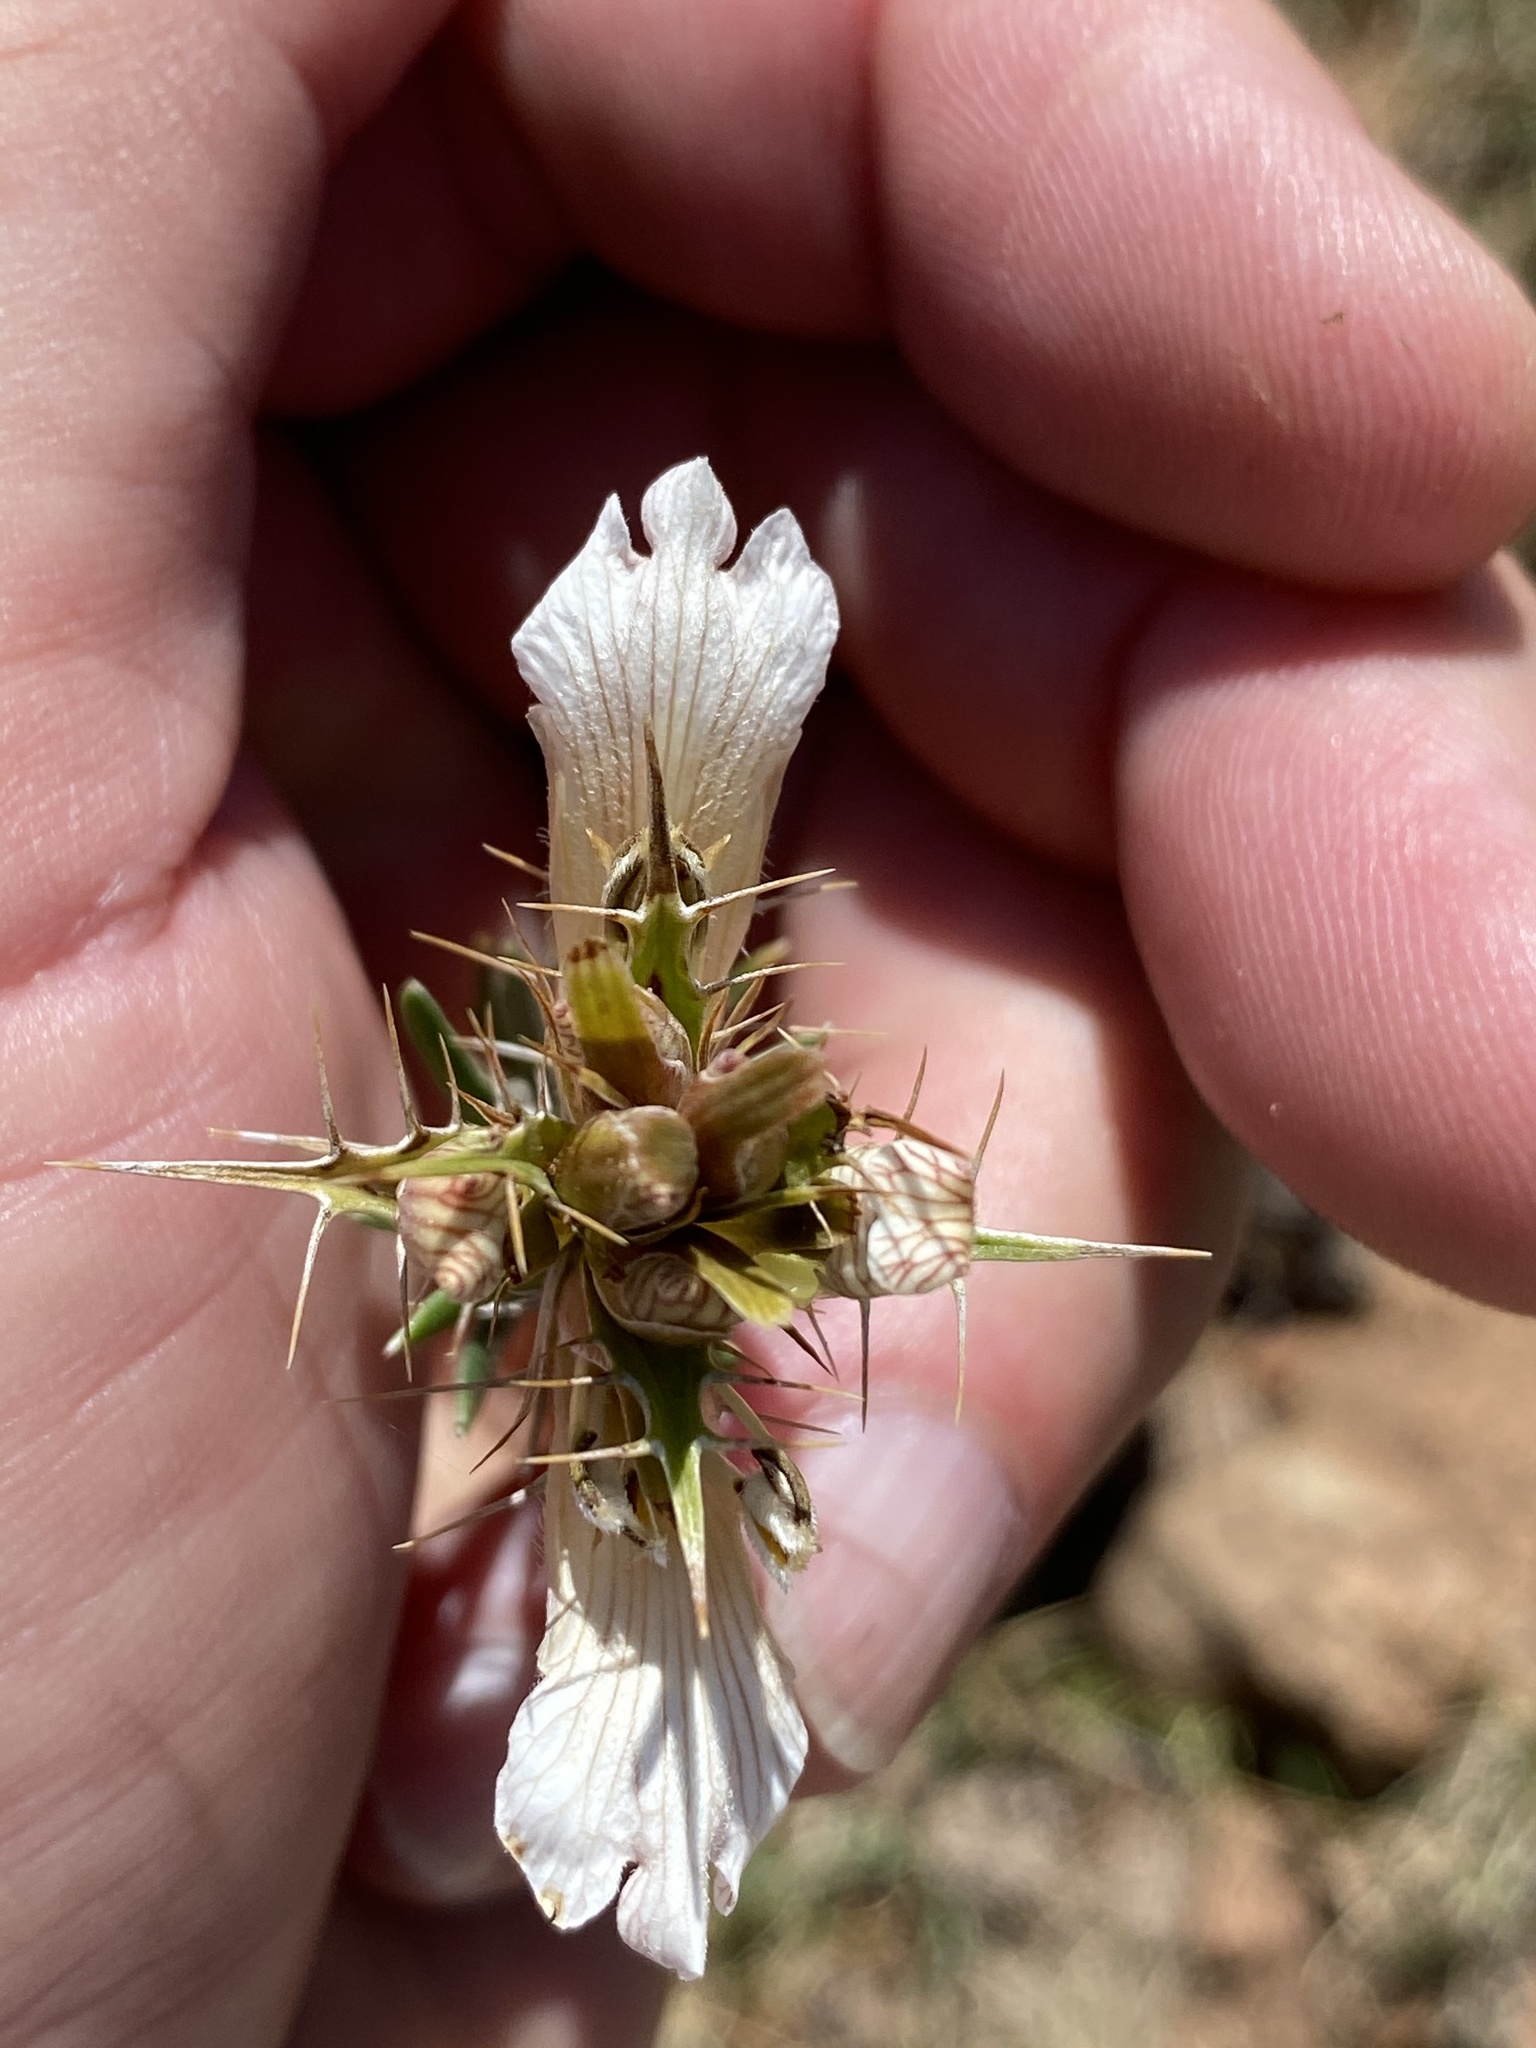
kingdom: Plantae
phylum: Tracheophyta
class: Magnoliopsida
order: Lamiales
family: Acanthaceae
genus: Blepharis
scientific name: Blepharis capensis
